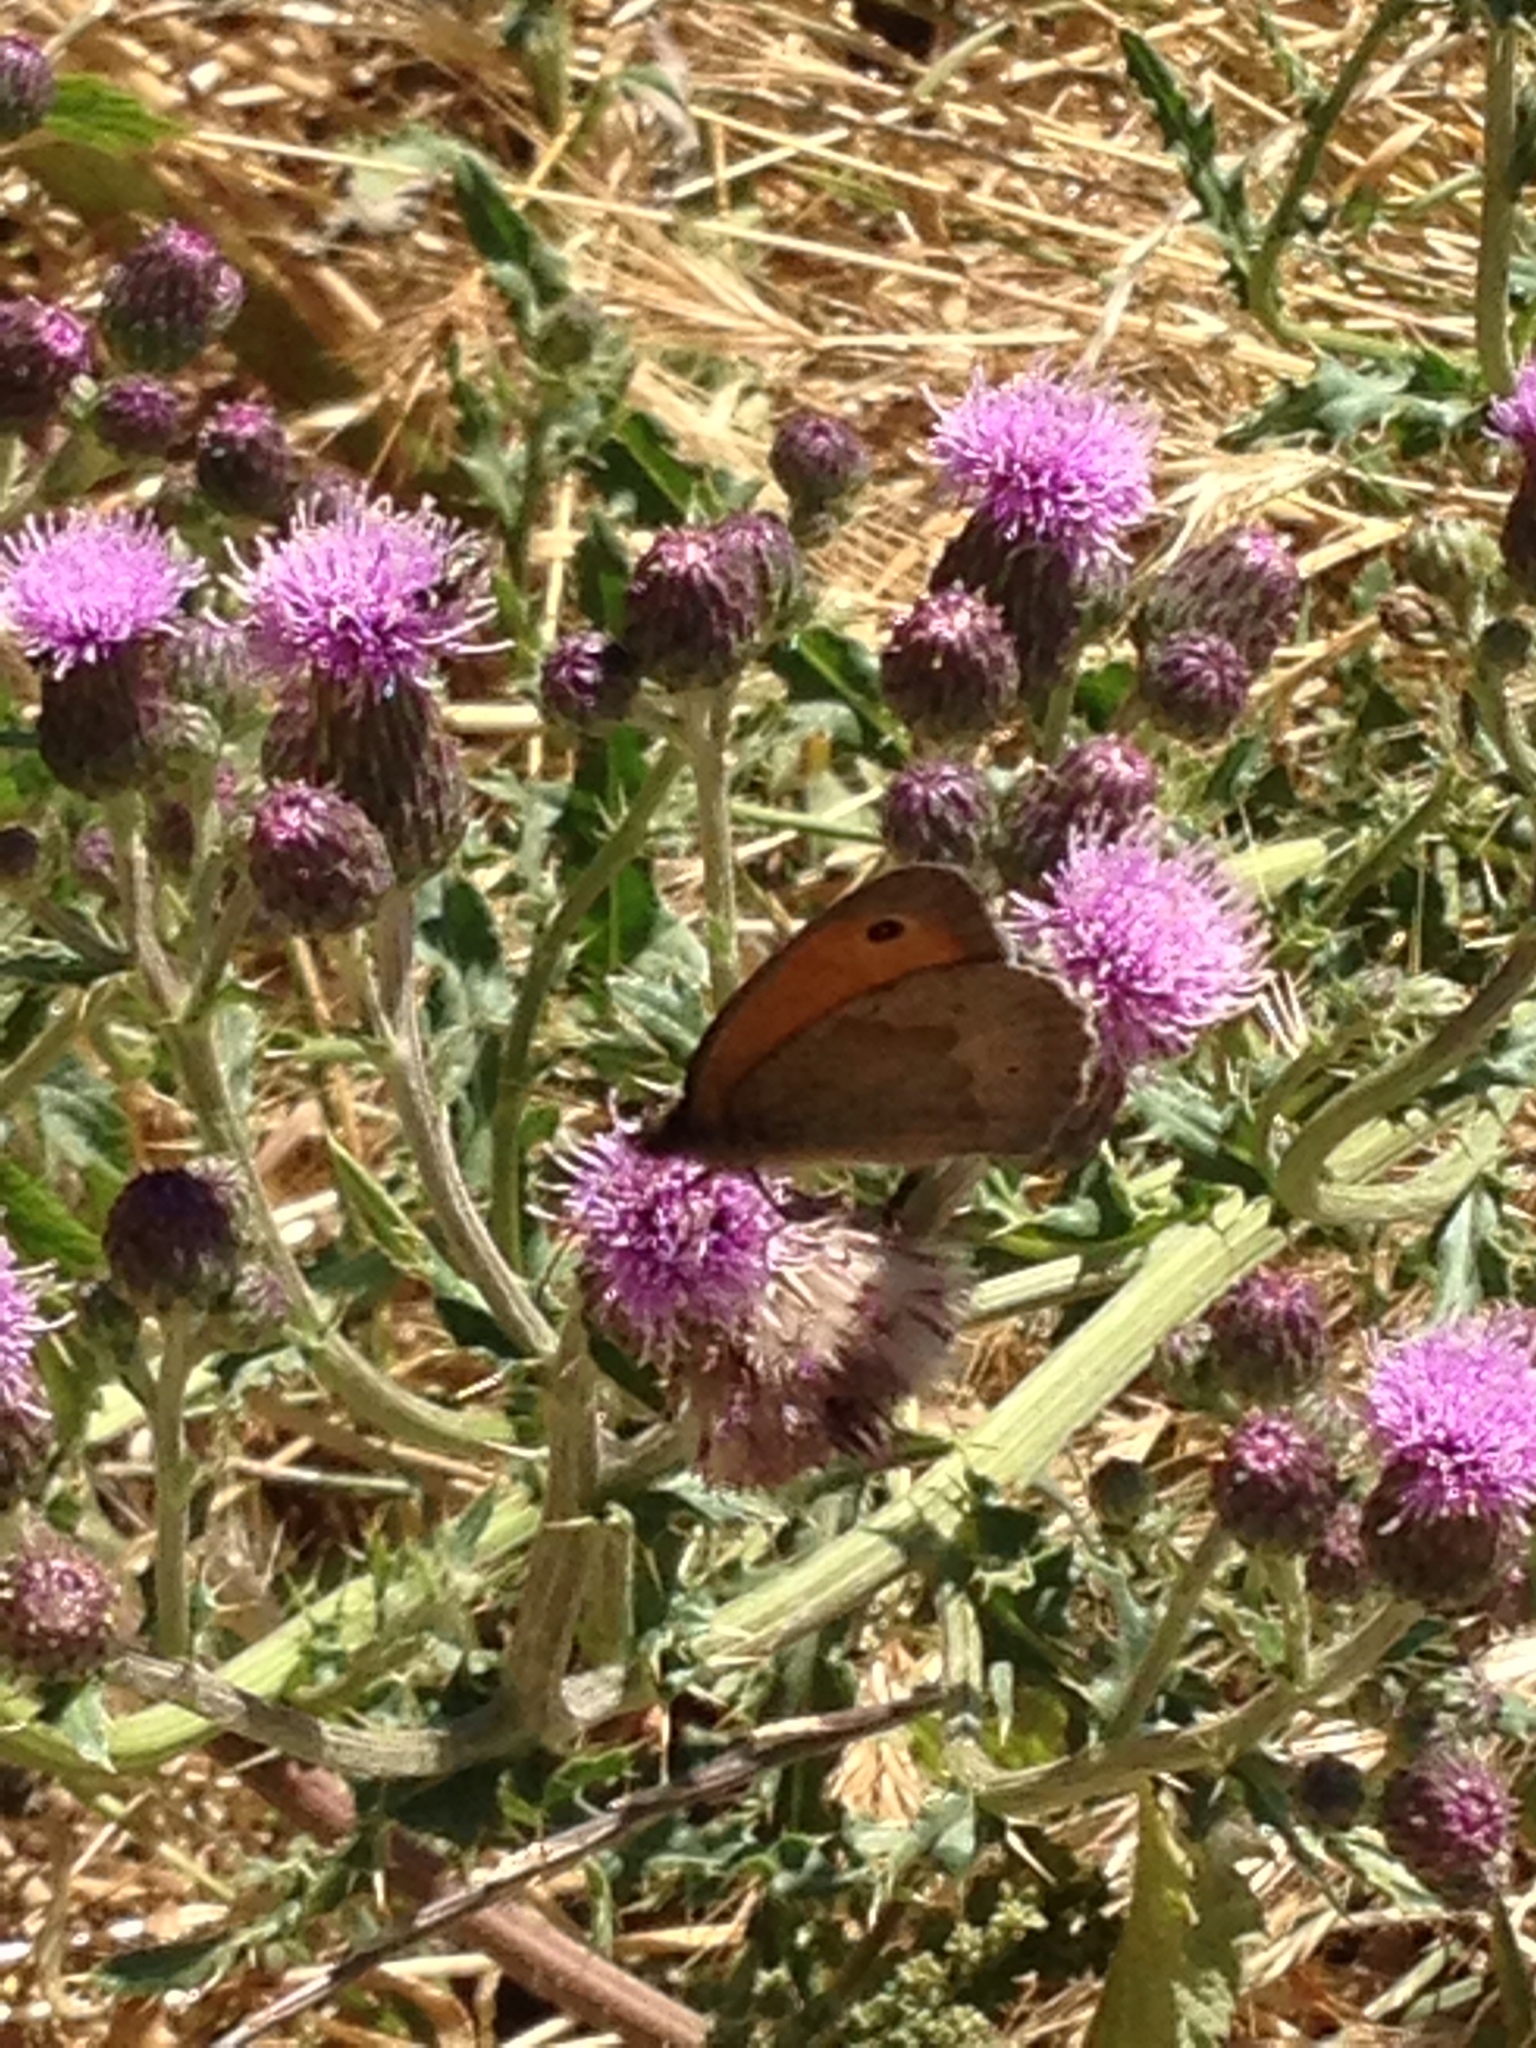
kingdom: Animalia
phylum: Arthropoda
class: Insecta
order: Lepidoptera
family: Nymphalidae
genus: Maniola
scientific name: Maniola jurtina
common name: Meadow brown
